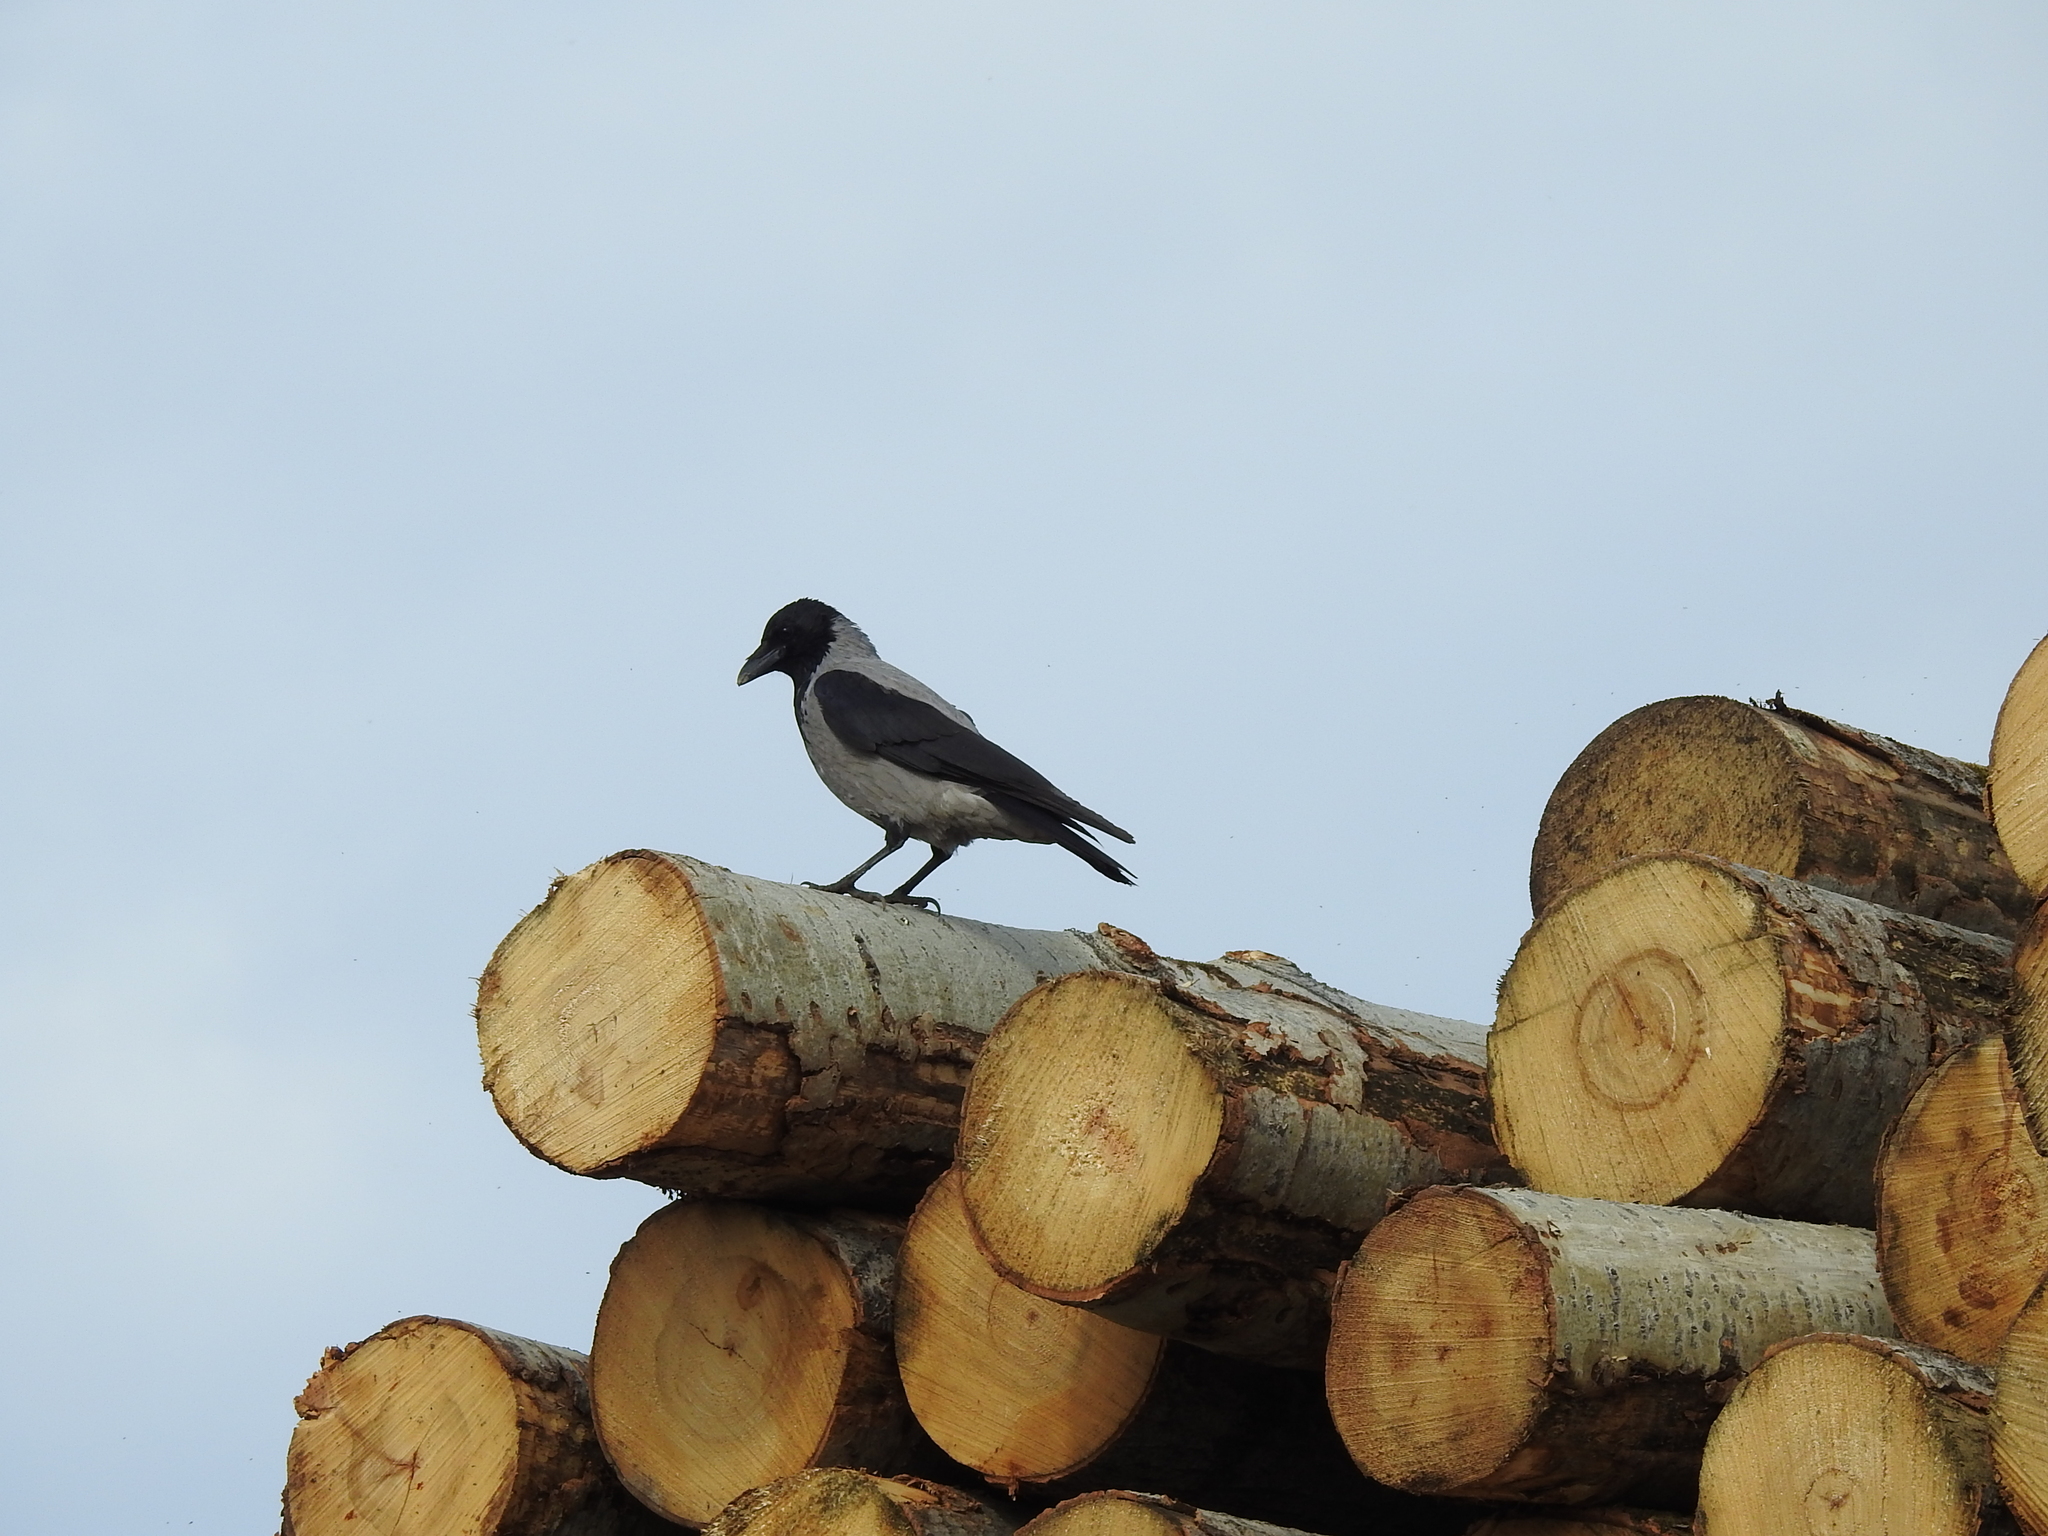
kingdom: Animalia
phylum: Chordata
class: Aves
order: Passeriformes
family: Corvidae
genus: Corvus
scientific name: Corvus cornix
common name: Hooded crow
